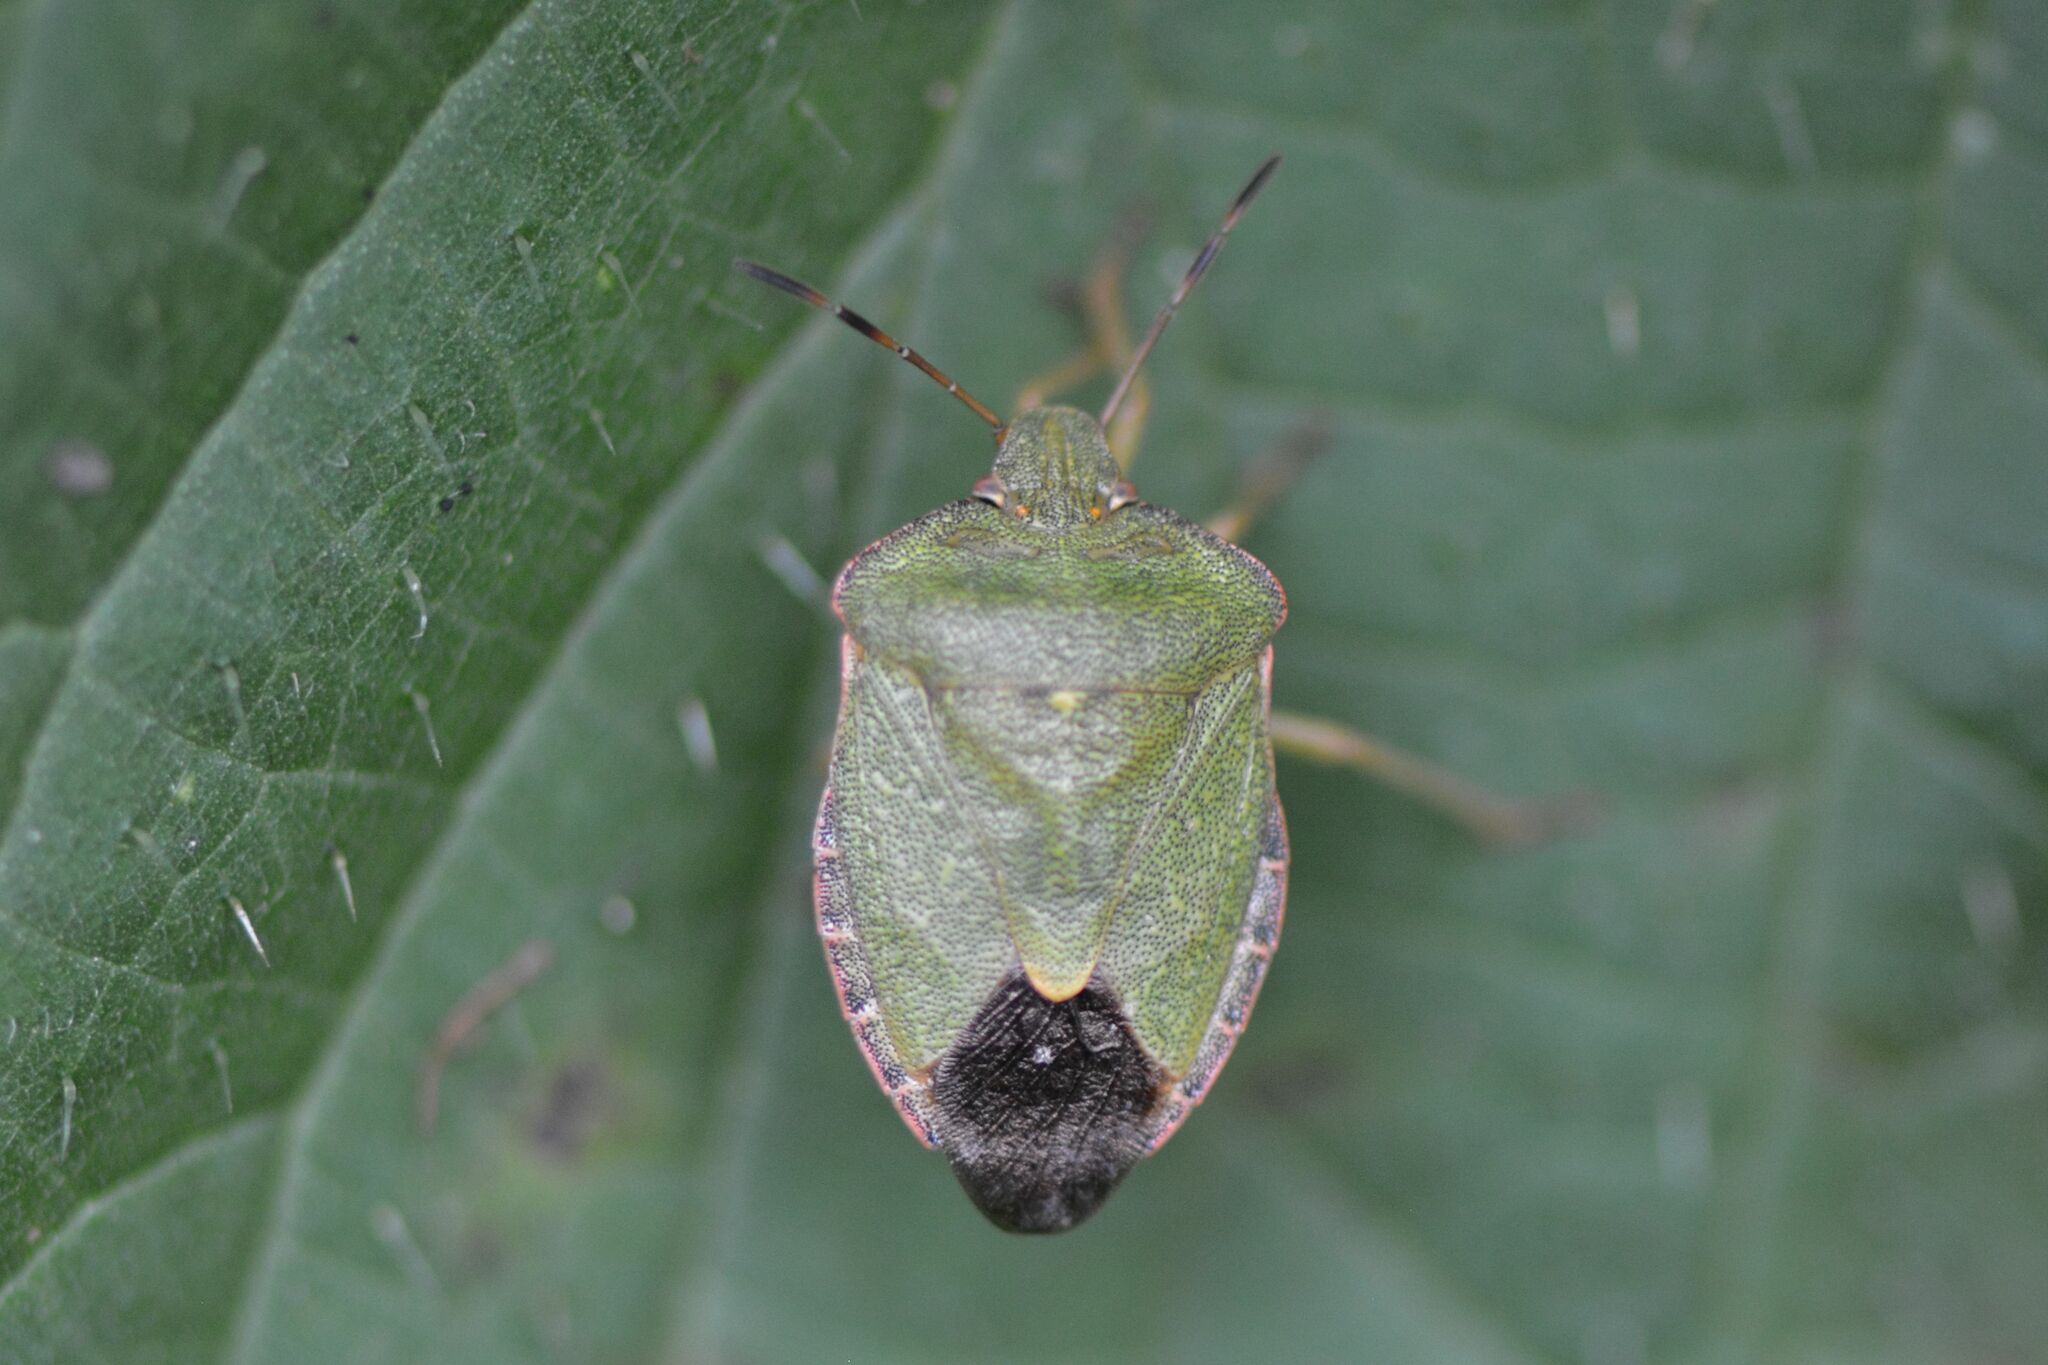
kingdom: Animalia
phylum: Arthropoda
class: Insecta
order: Hemiptera
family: Pentatomidae
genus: Palomena
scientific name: Palomena prasina
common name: Green shieldbug
